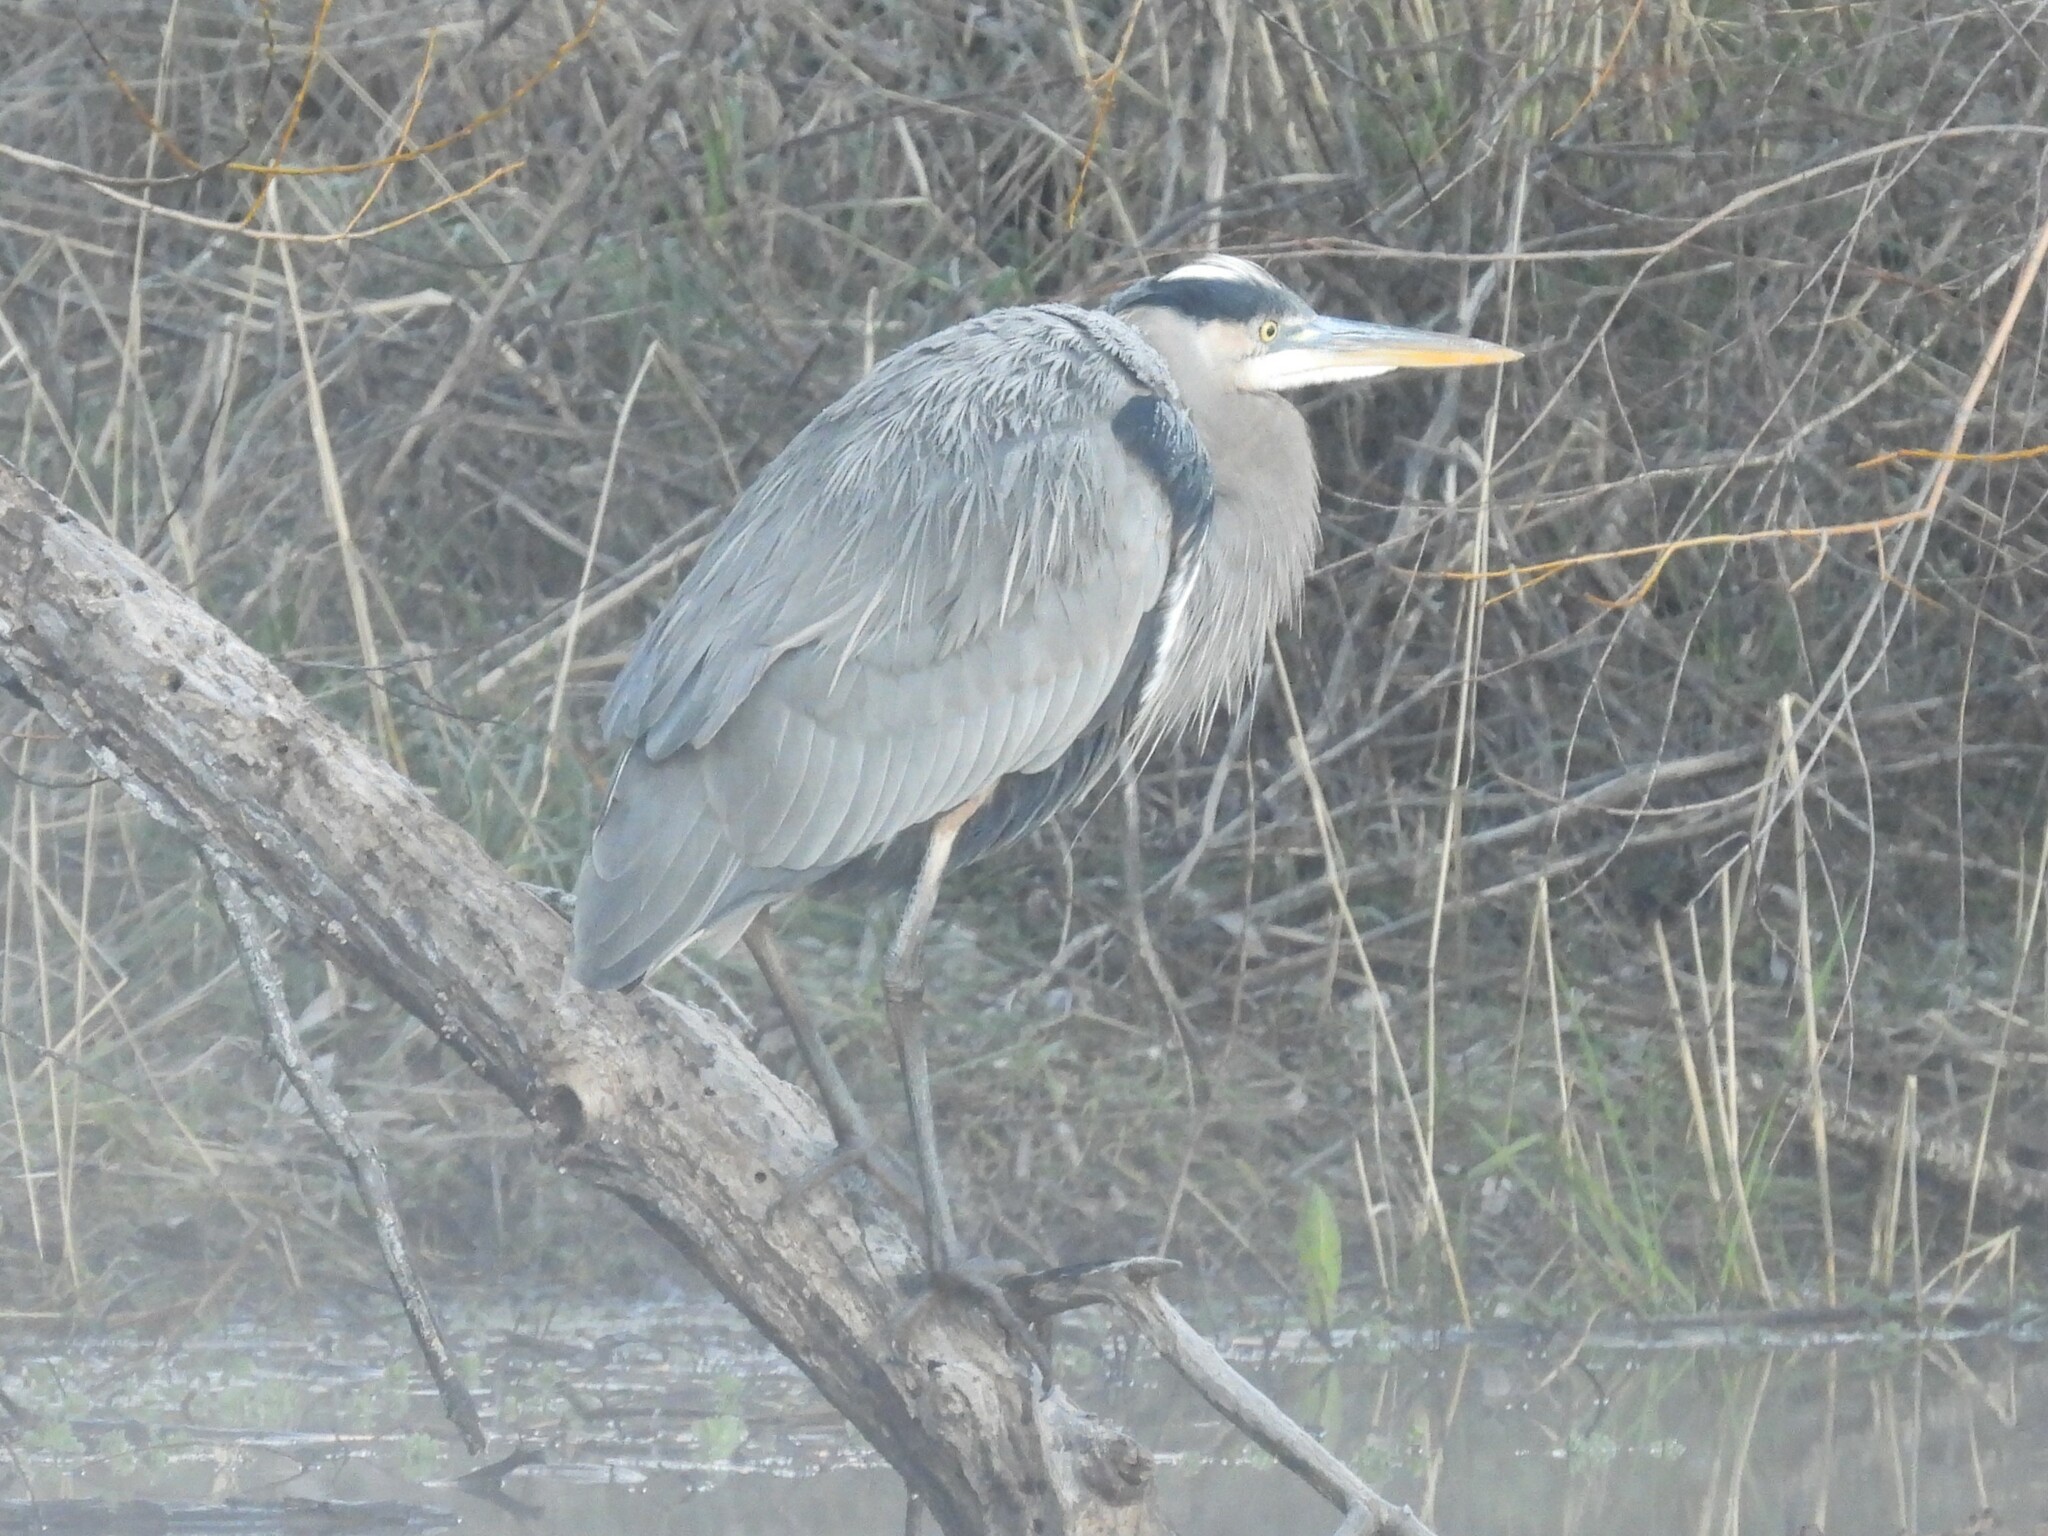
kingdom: Animalia
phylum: Chordata
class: Aves
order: Pelecaniformes
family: Ardeidae
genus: Ardea
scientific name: Ardea herodias
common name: Great blue heron
